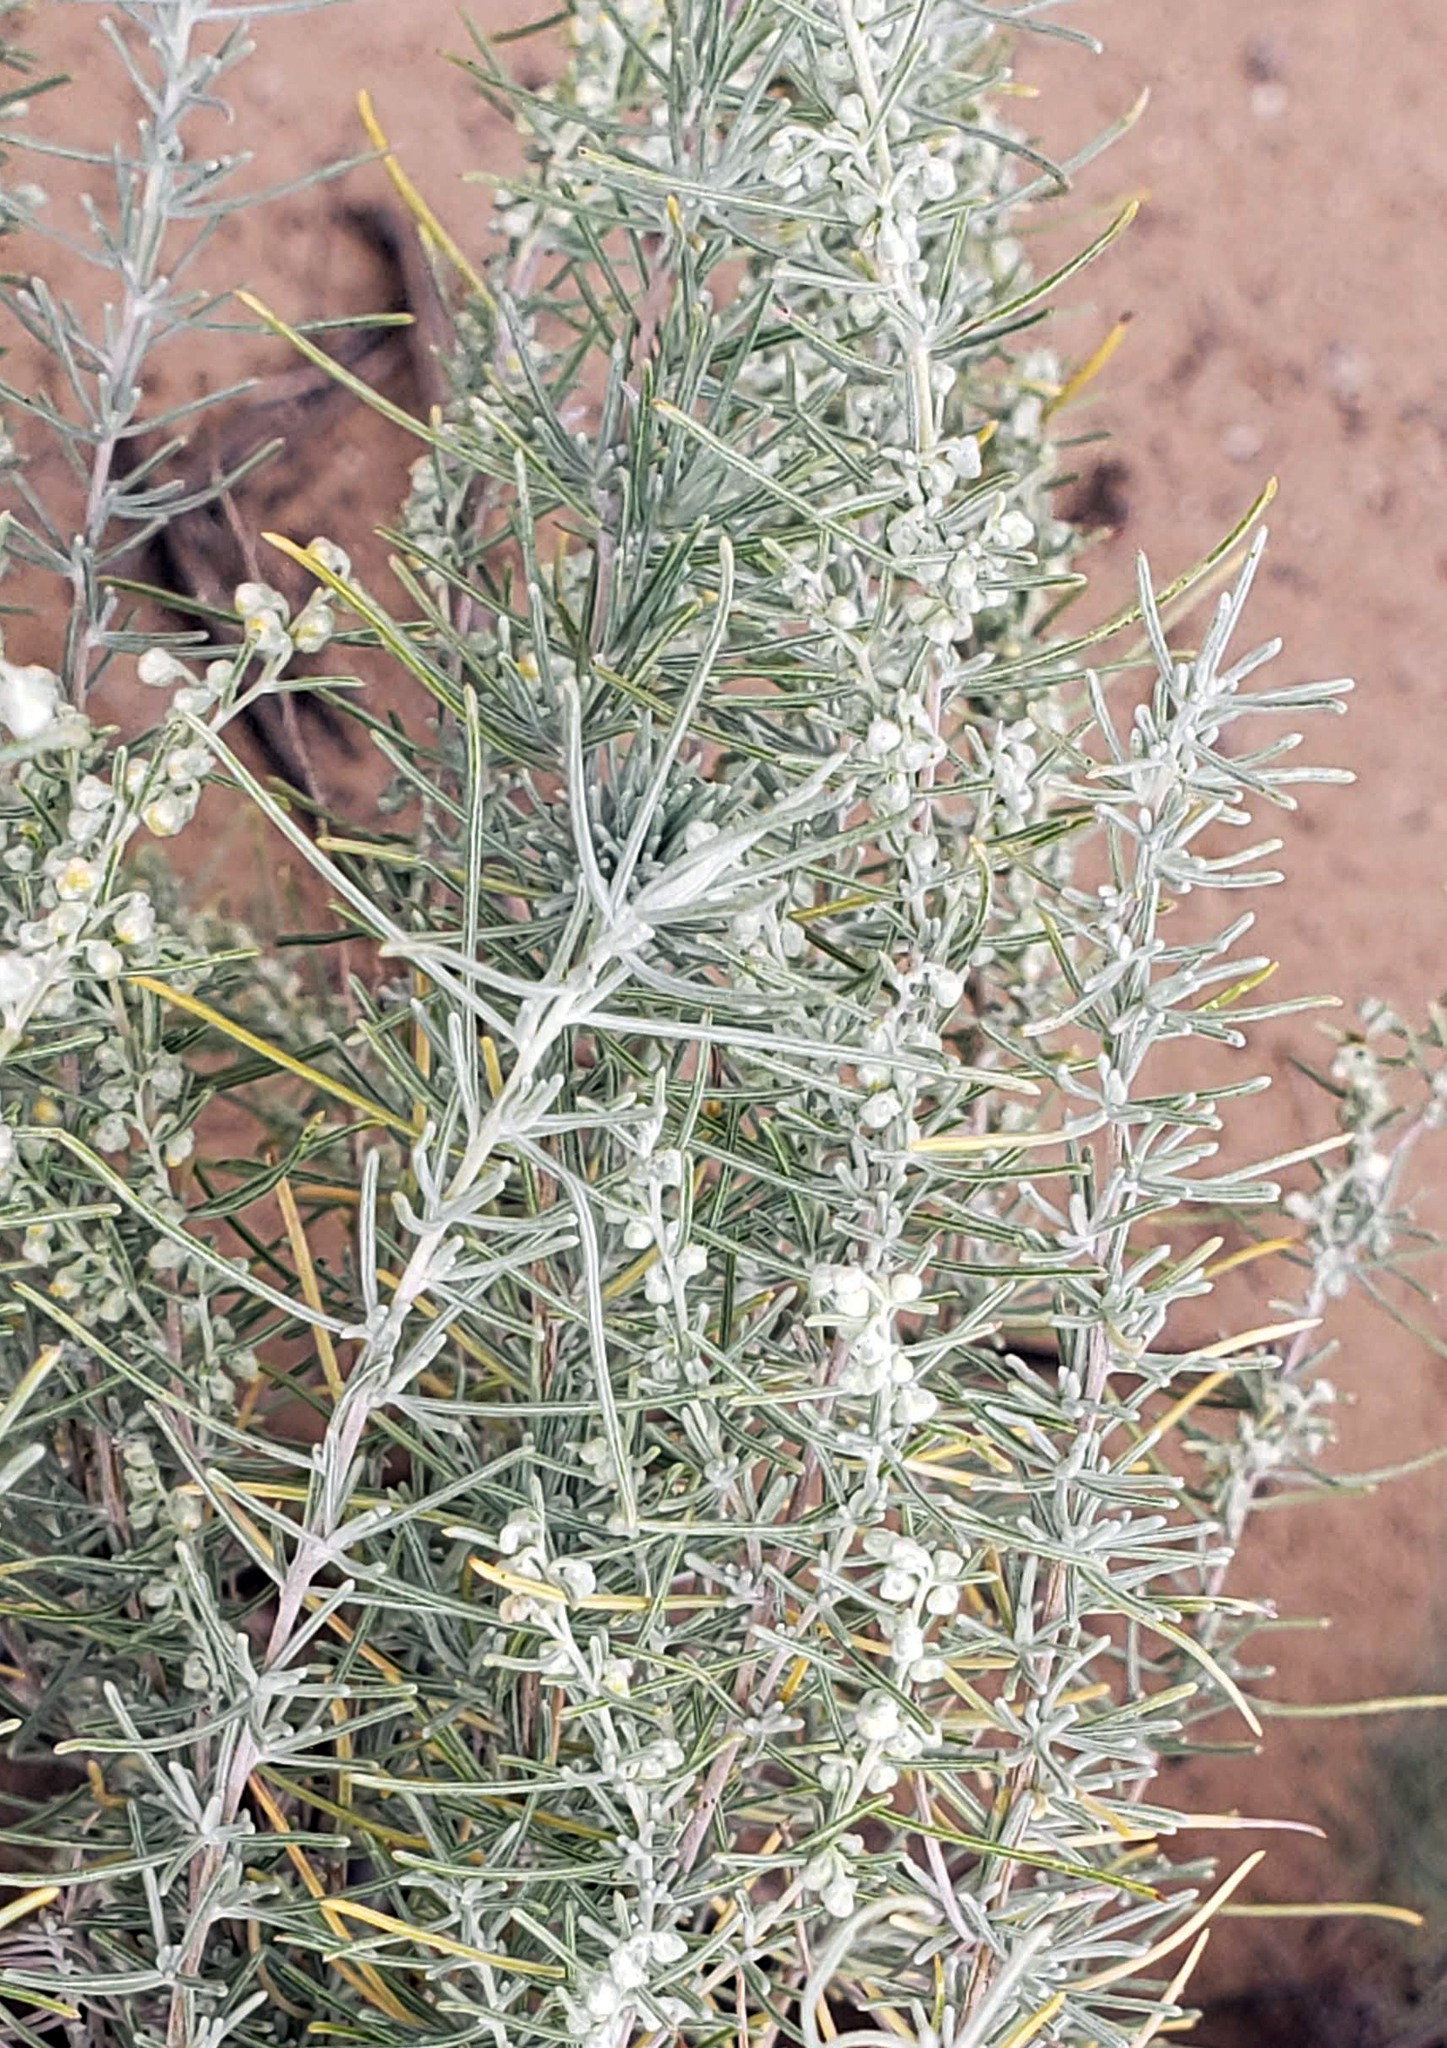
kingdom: Plantae
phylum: Tracheophyta
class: Magnoliopsida
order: Asterales
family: Asteraceae
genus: Artemisia
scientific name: Artemisia filifolia
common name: Sand-sage
